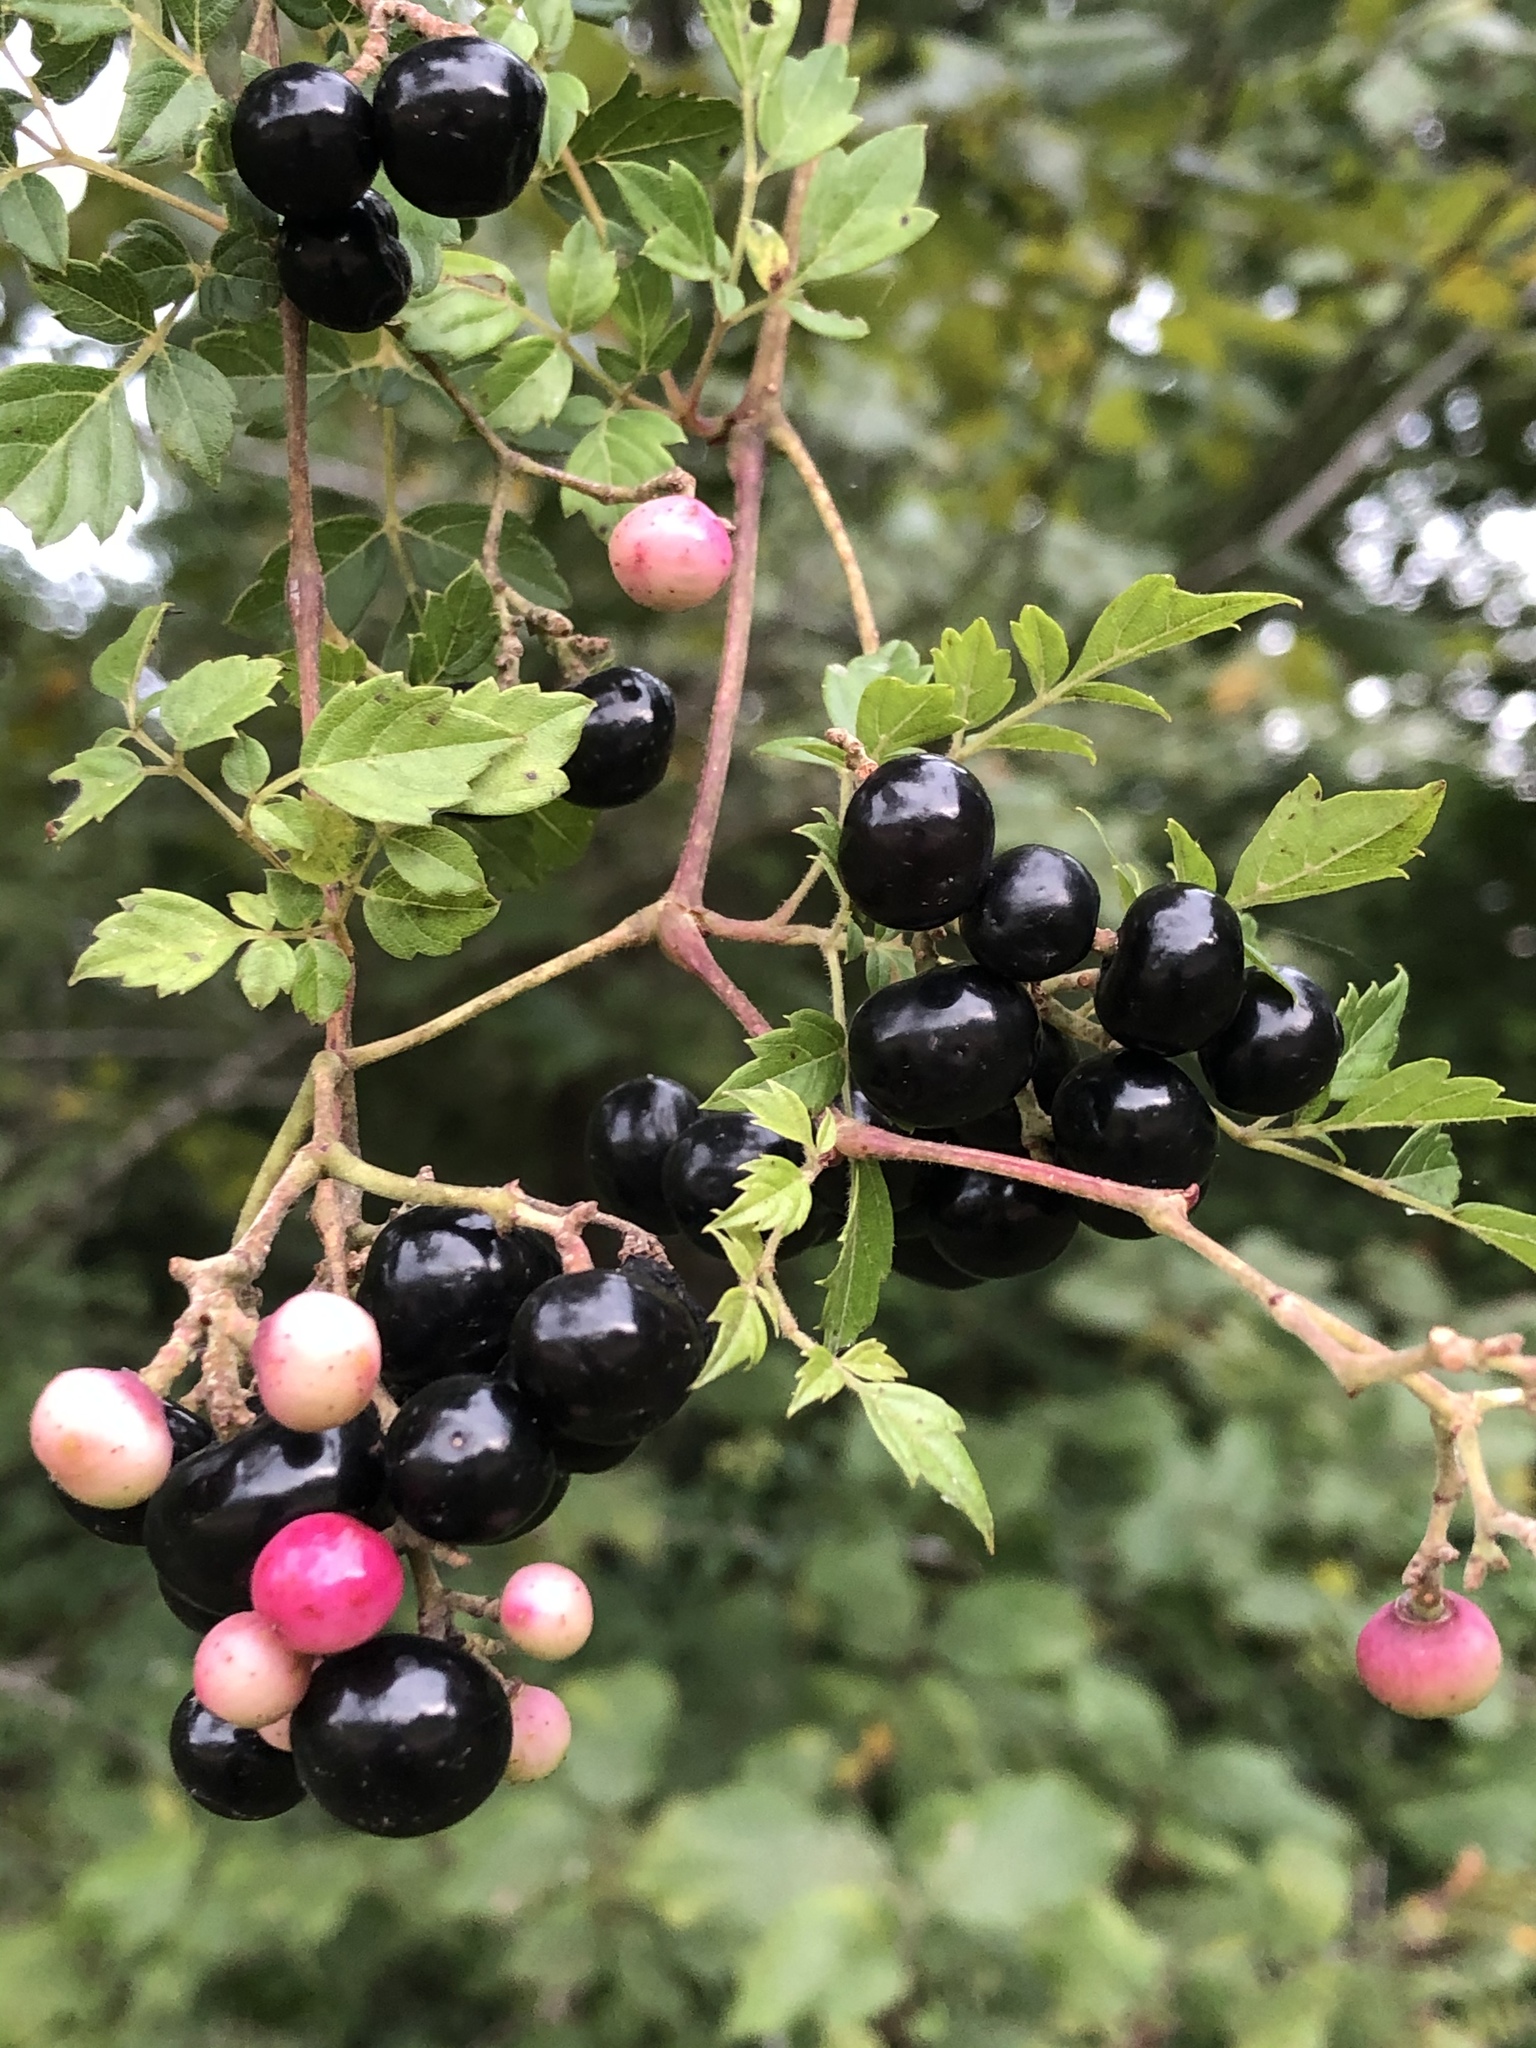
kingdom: Plantae
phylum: Tracheophyta
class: Magnoliopsida
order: Vitales
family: Vitaceae
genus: Nekemias
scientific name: Nekemias arborea
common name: Peppervine
